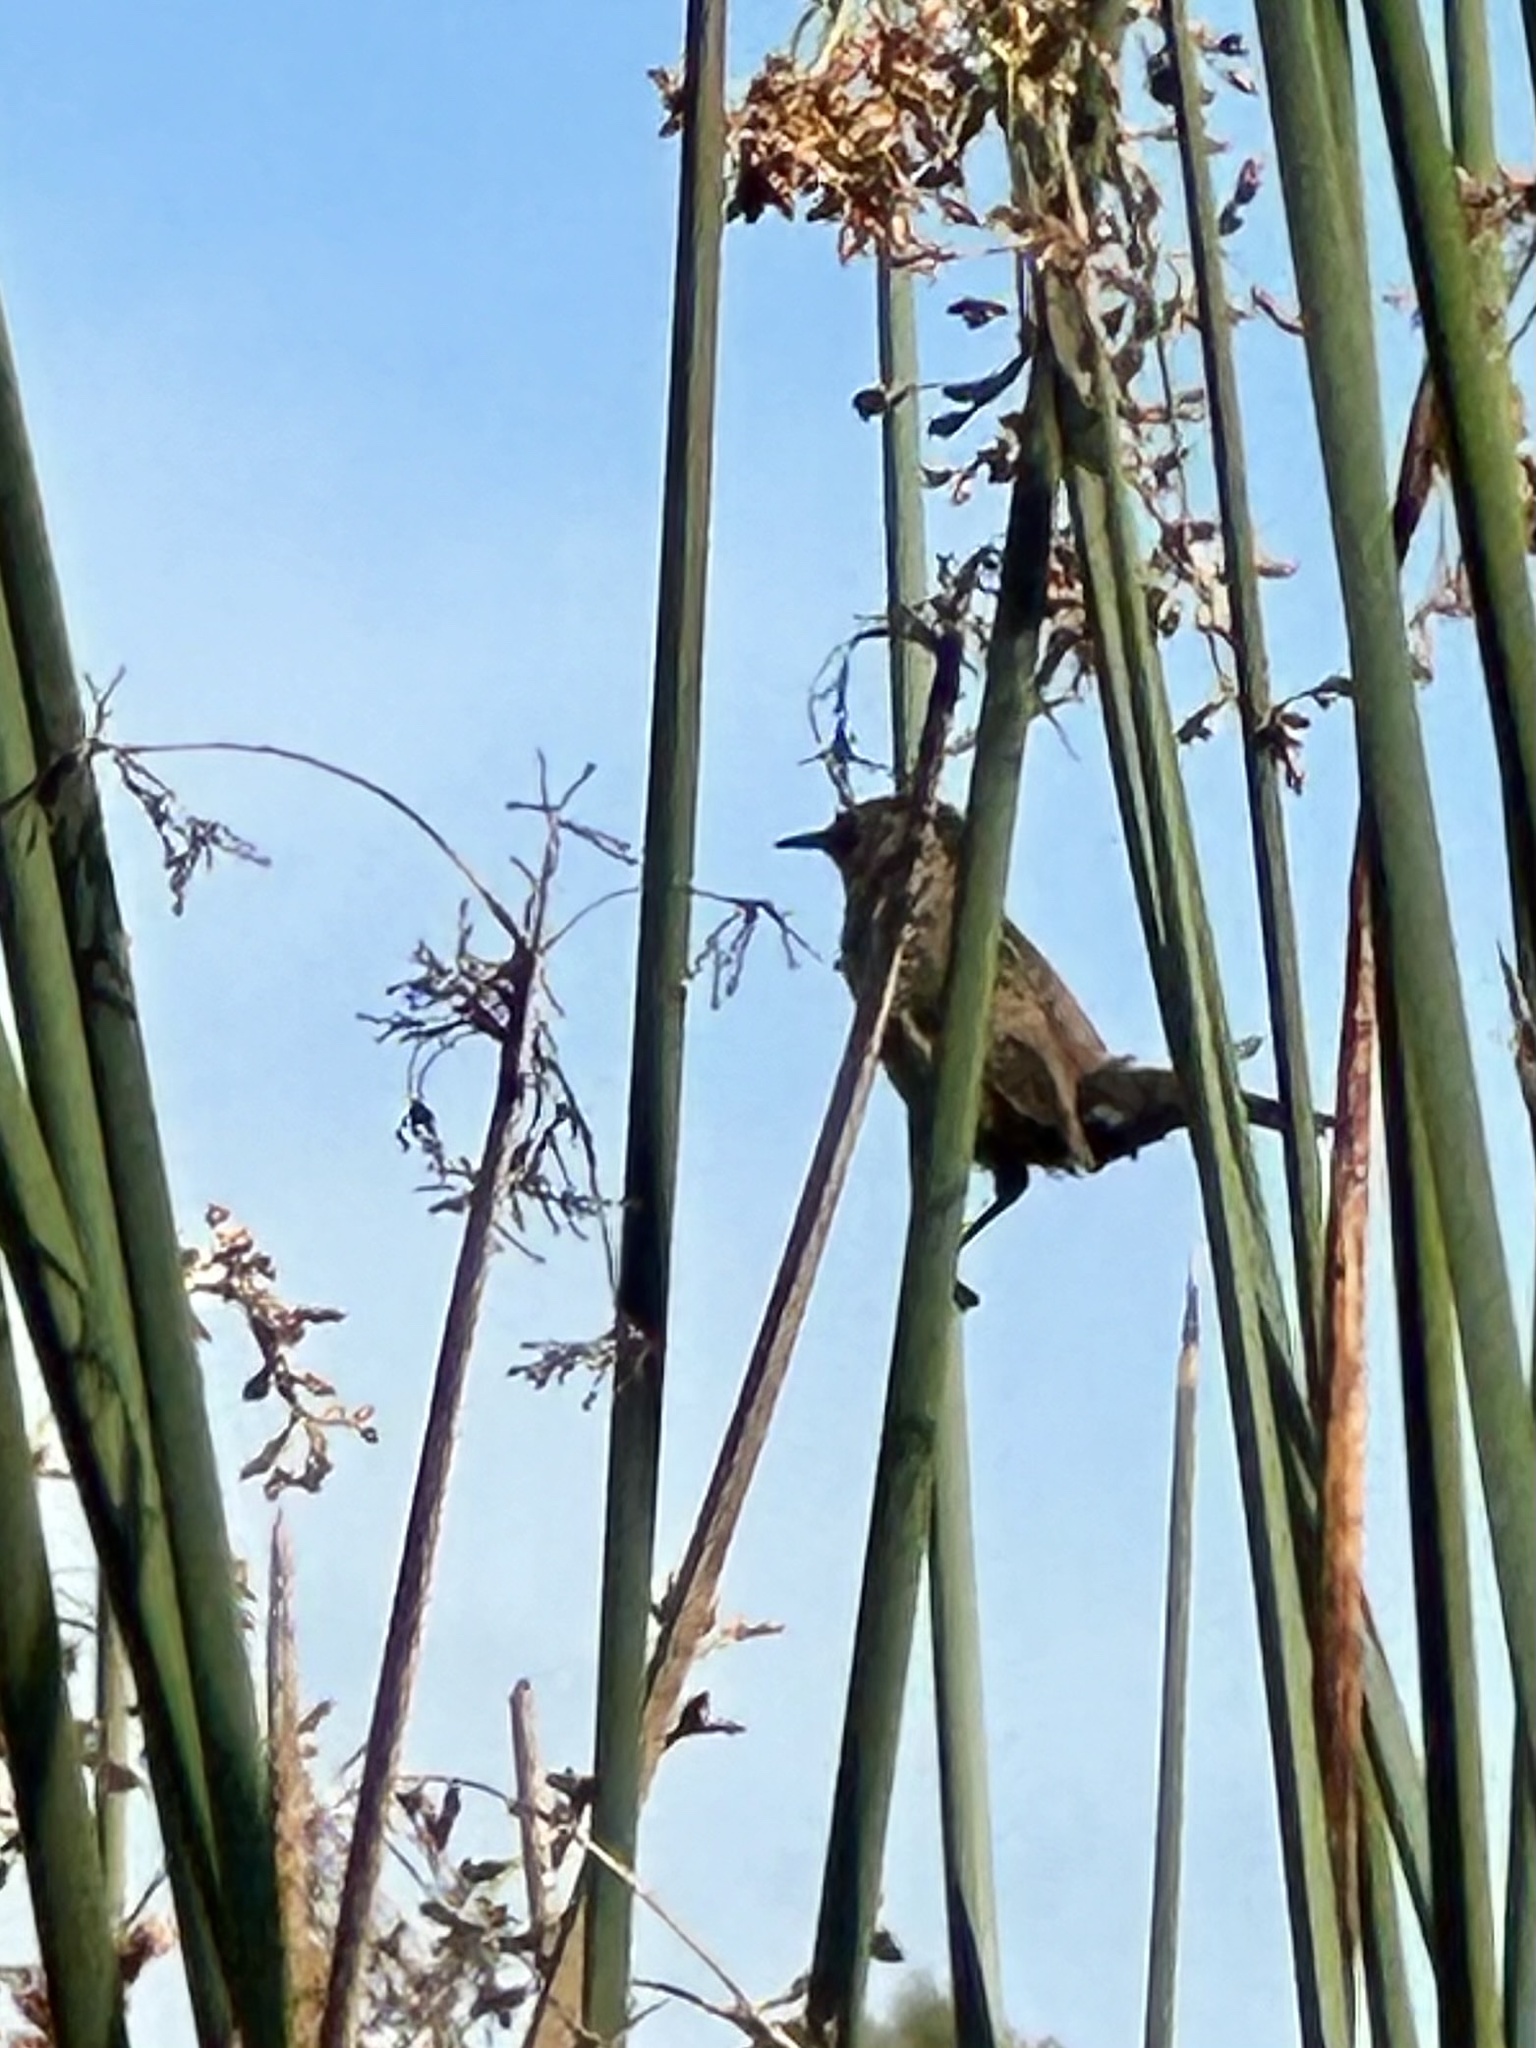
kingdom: Animalia
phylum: Chordata
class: Aves
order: Passeriformes
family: Troglodytidae
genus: Cistothorus
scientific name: Cistothorus palustris
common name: Marsh wren
